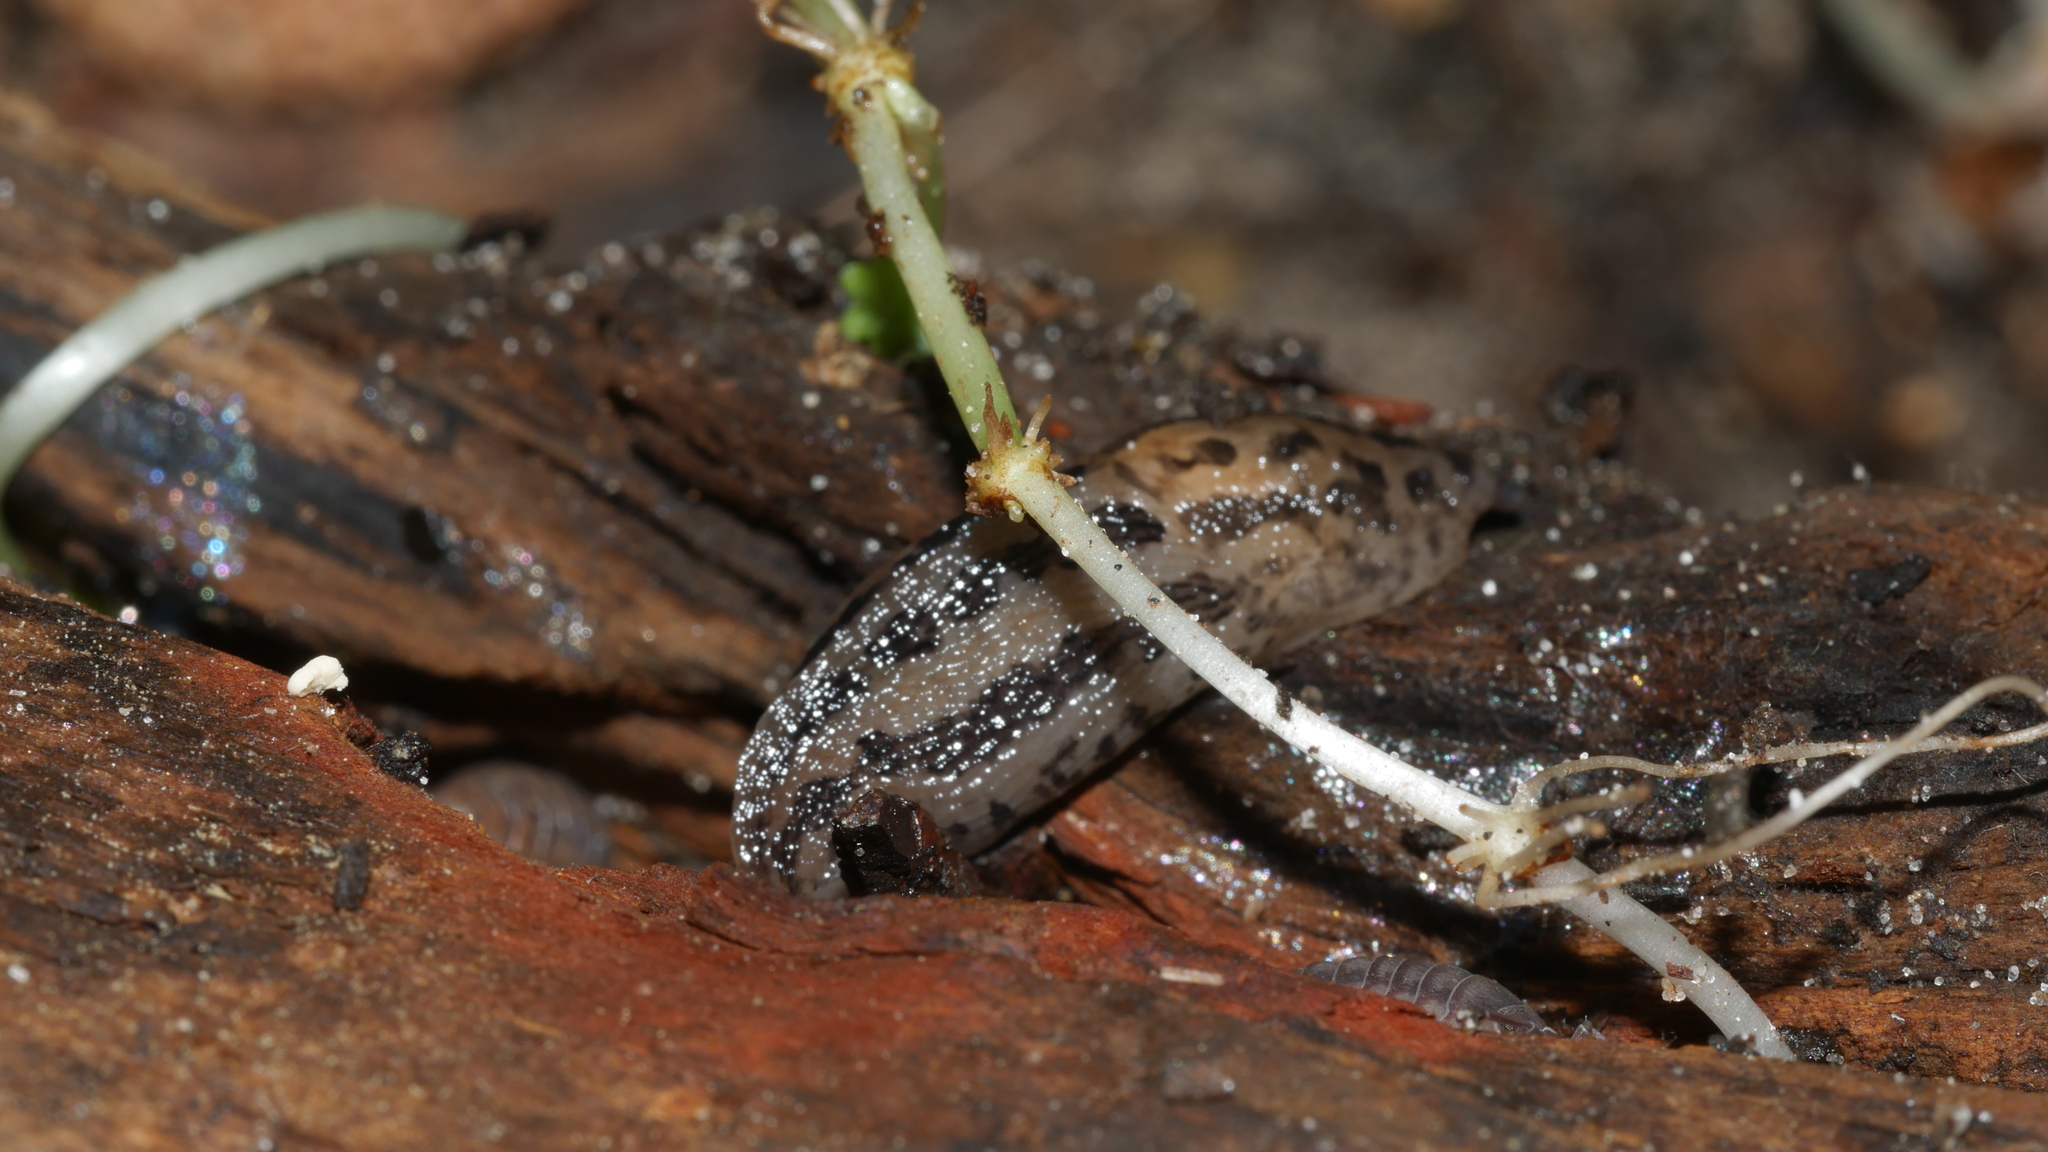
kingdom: Animalia
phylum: Mollusca
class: Gastropoda
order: Stylommatophora
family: Limacidae
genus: Limax
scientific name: Limax maximus
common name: Great grey slug
